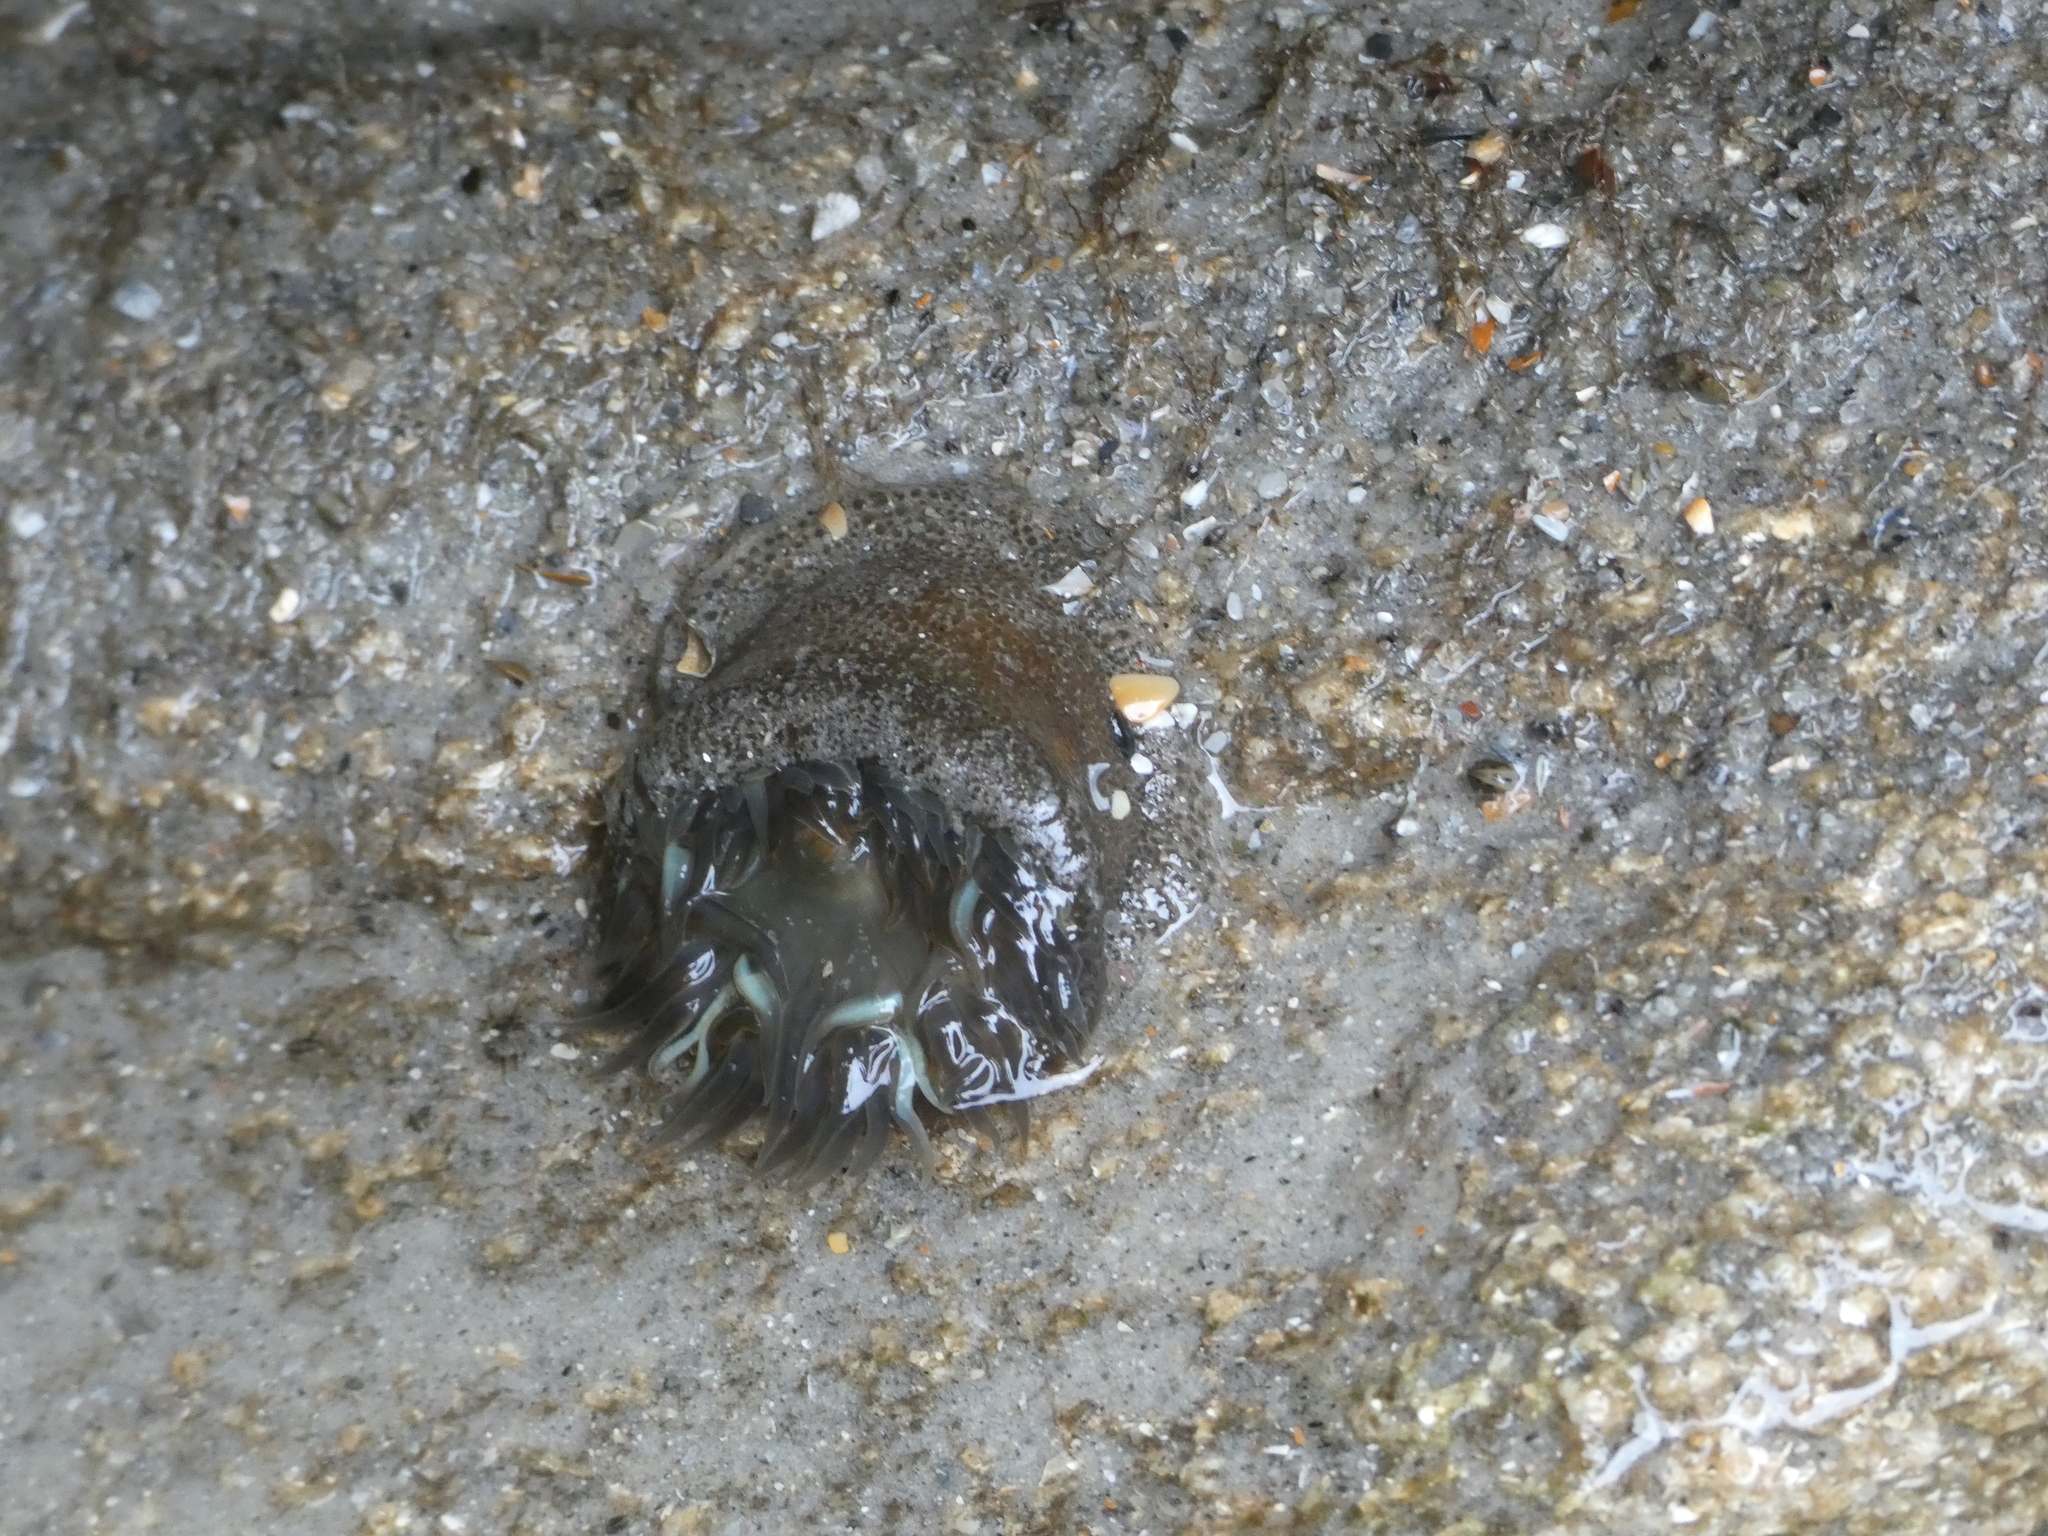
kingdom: Animalia
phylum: Cnidaria
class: Anthozoa
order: Actiniaria
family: Actiniidae
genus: Bunodosoma
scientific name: Bunodosoma cavernatum
